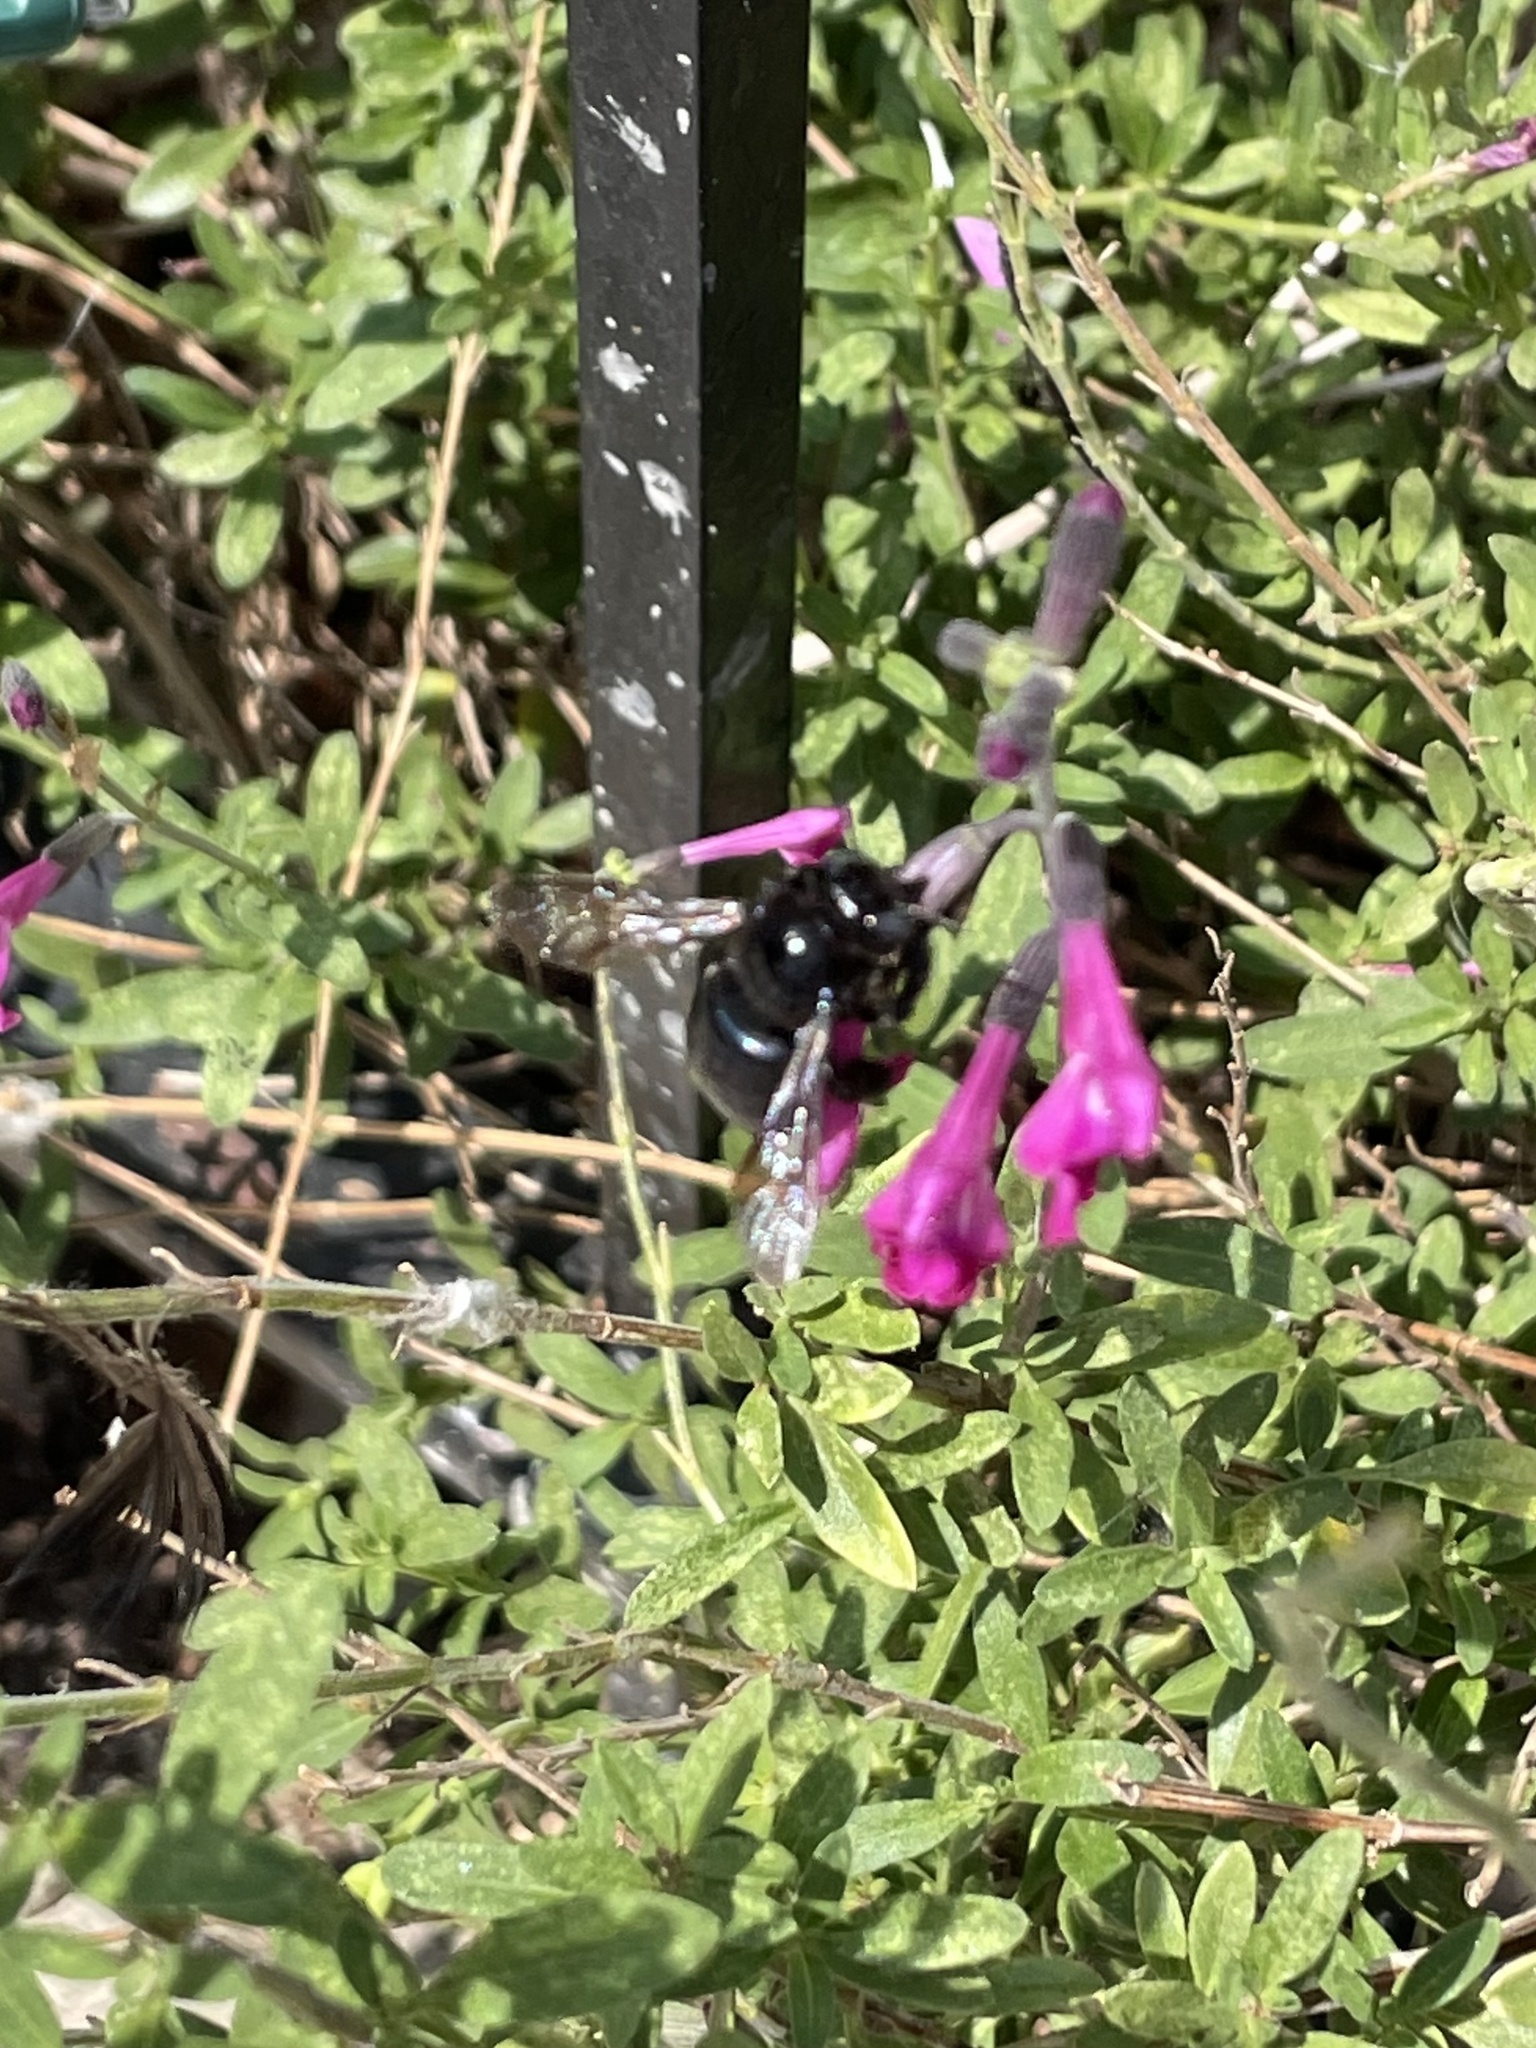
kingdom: Animalia
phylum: Arthropoda
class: Insecta
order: Hymenoptera
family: Apidae
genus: Xylocopa
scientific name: Xylocopa micans
